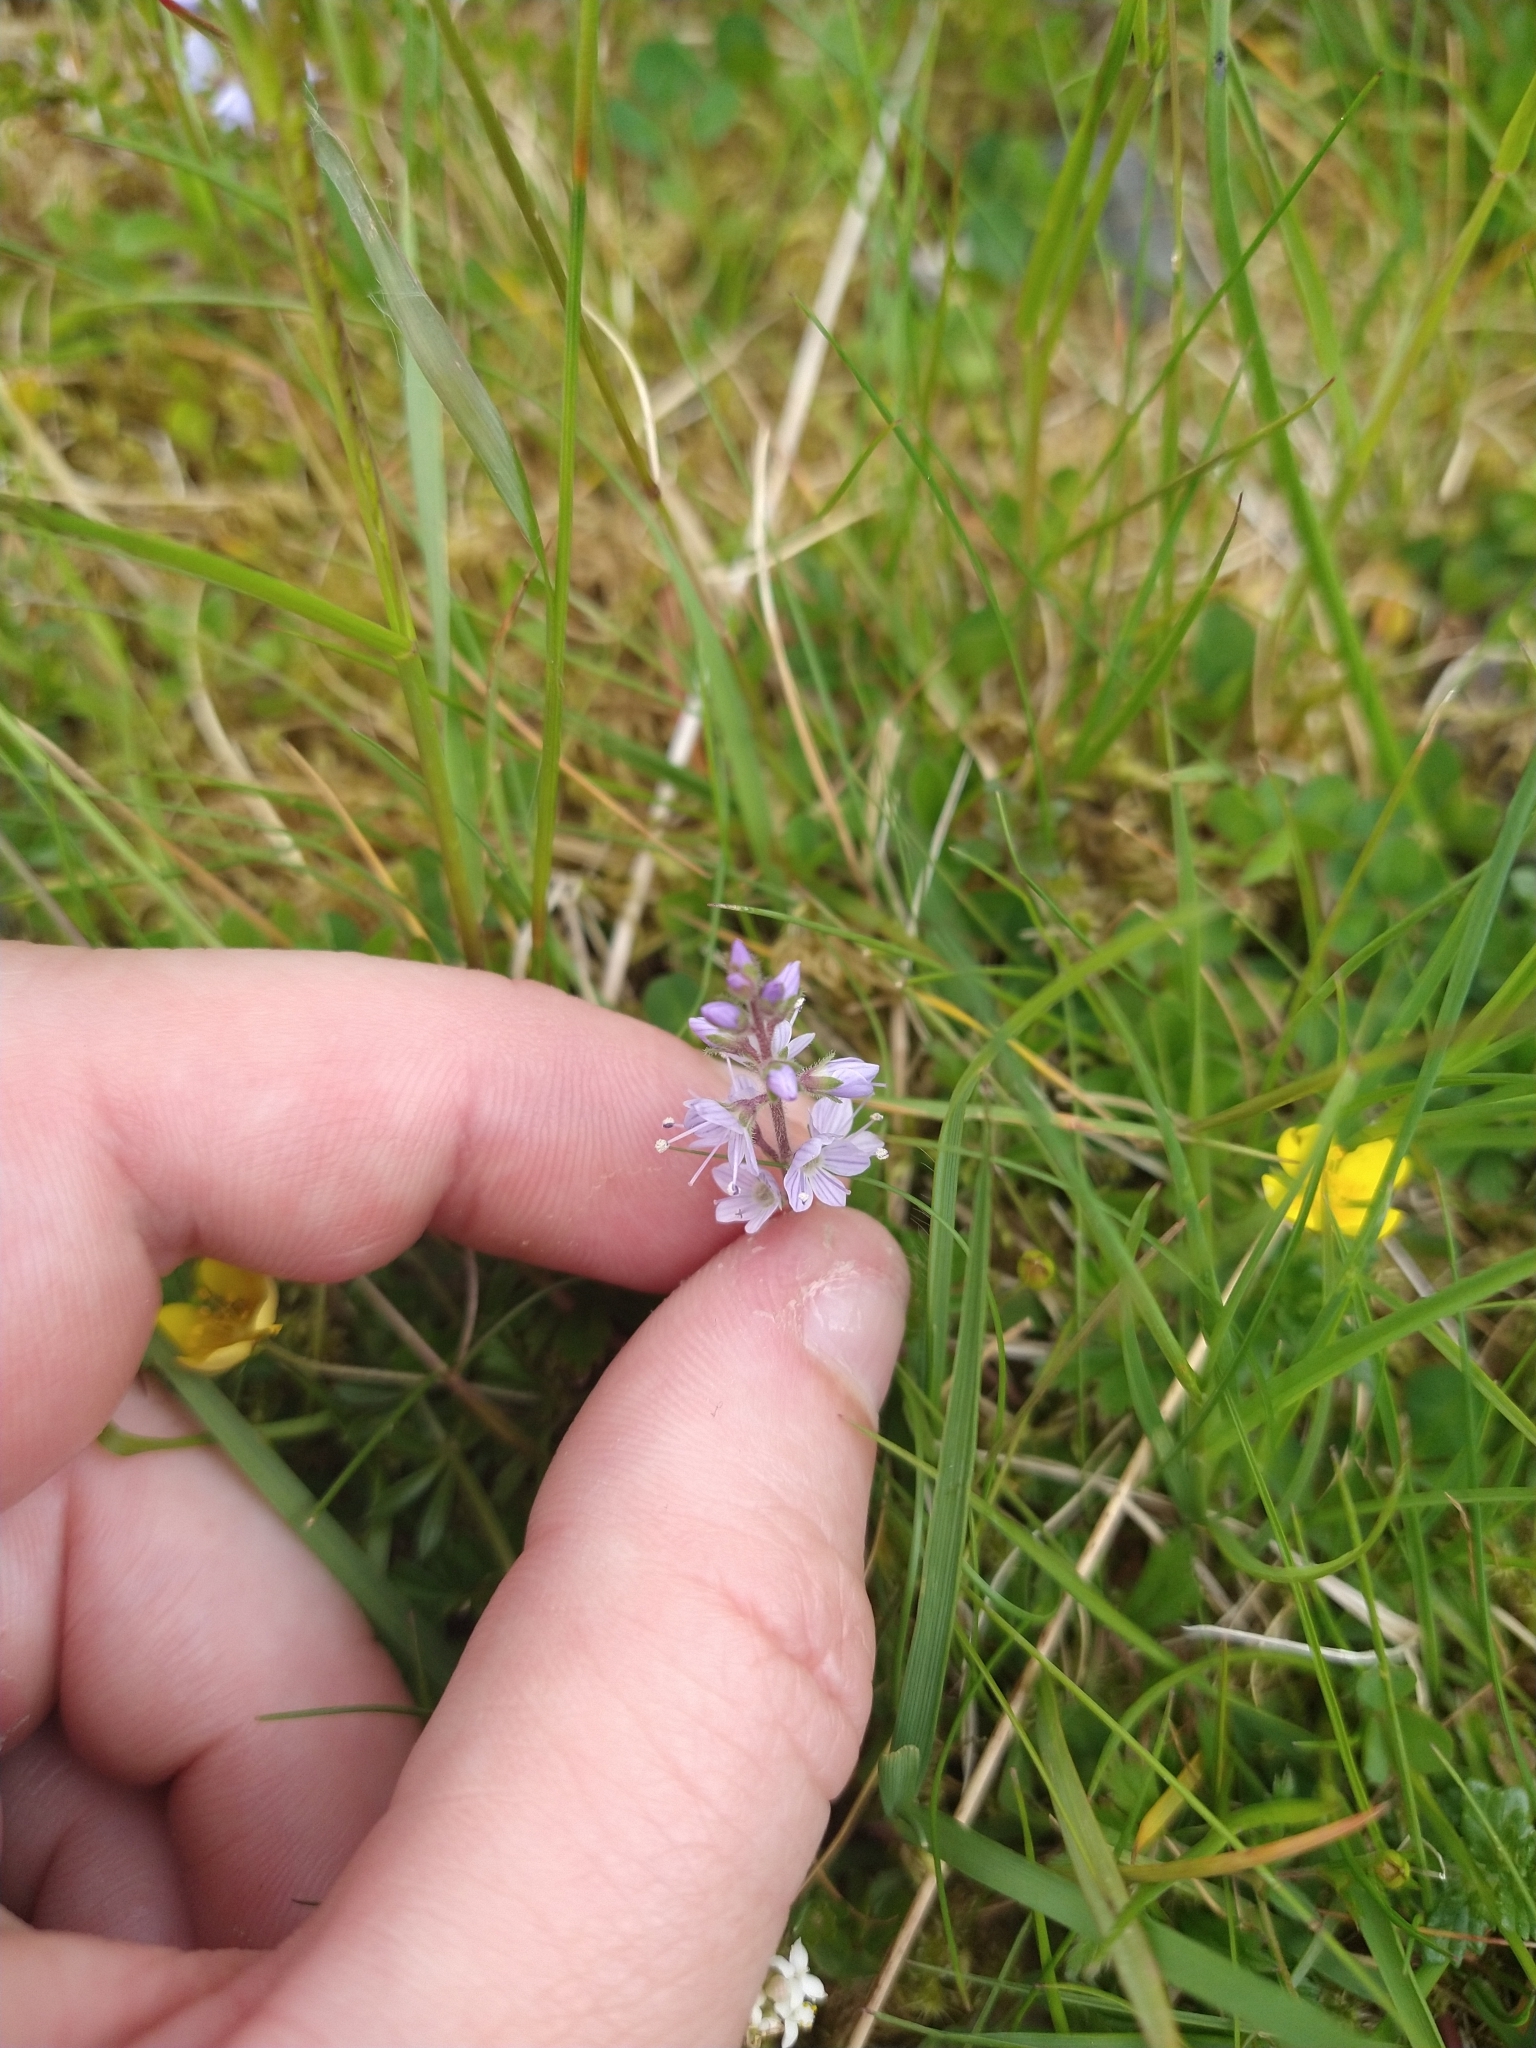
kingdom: Plantae
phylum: Tracheophyta
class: Magnoliopsida
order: Lamiales
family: Plantaginaceae
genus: Veronica
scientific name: Veronica officinalis
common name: Common speedwell
